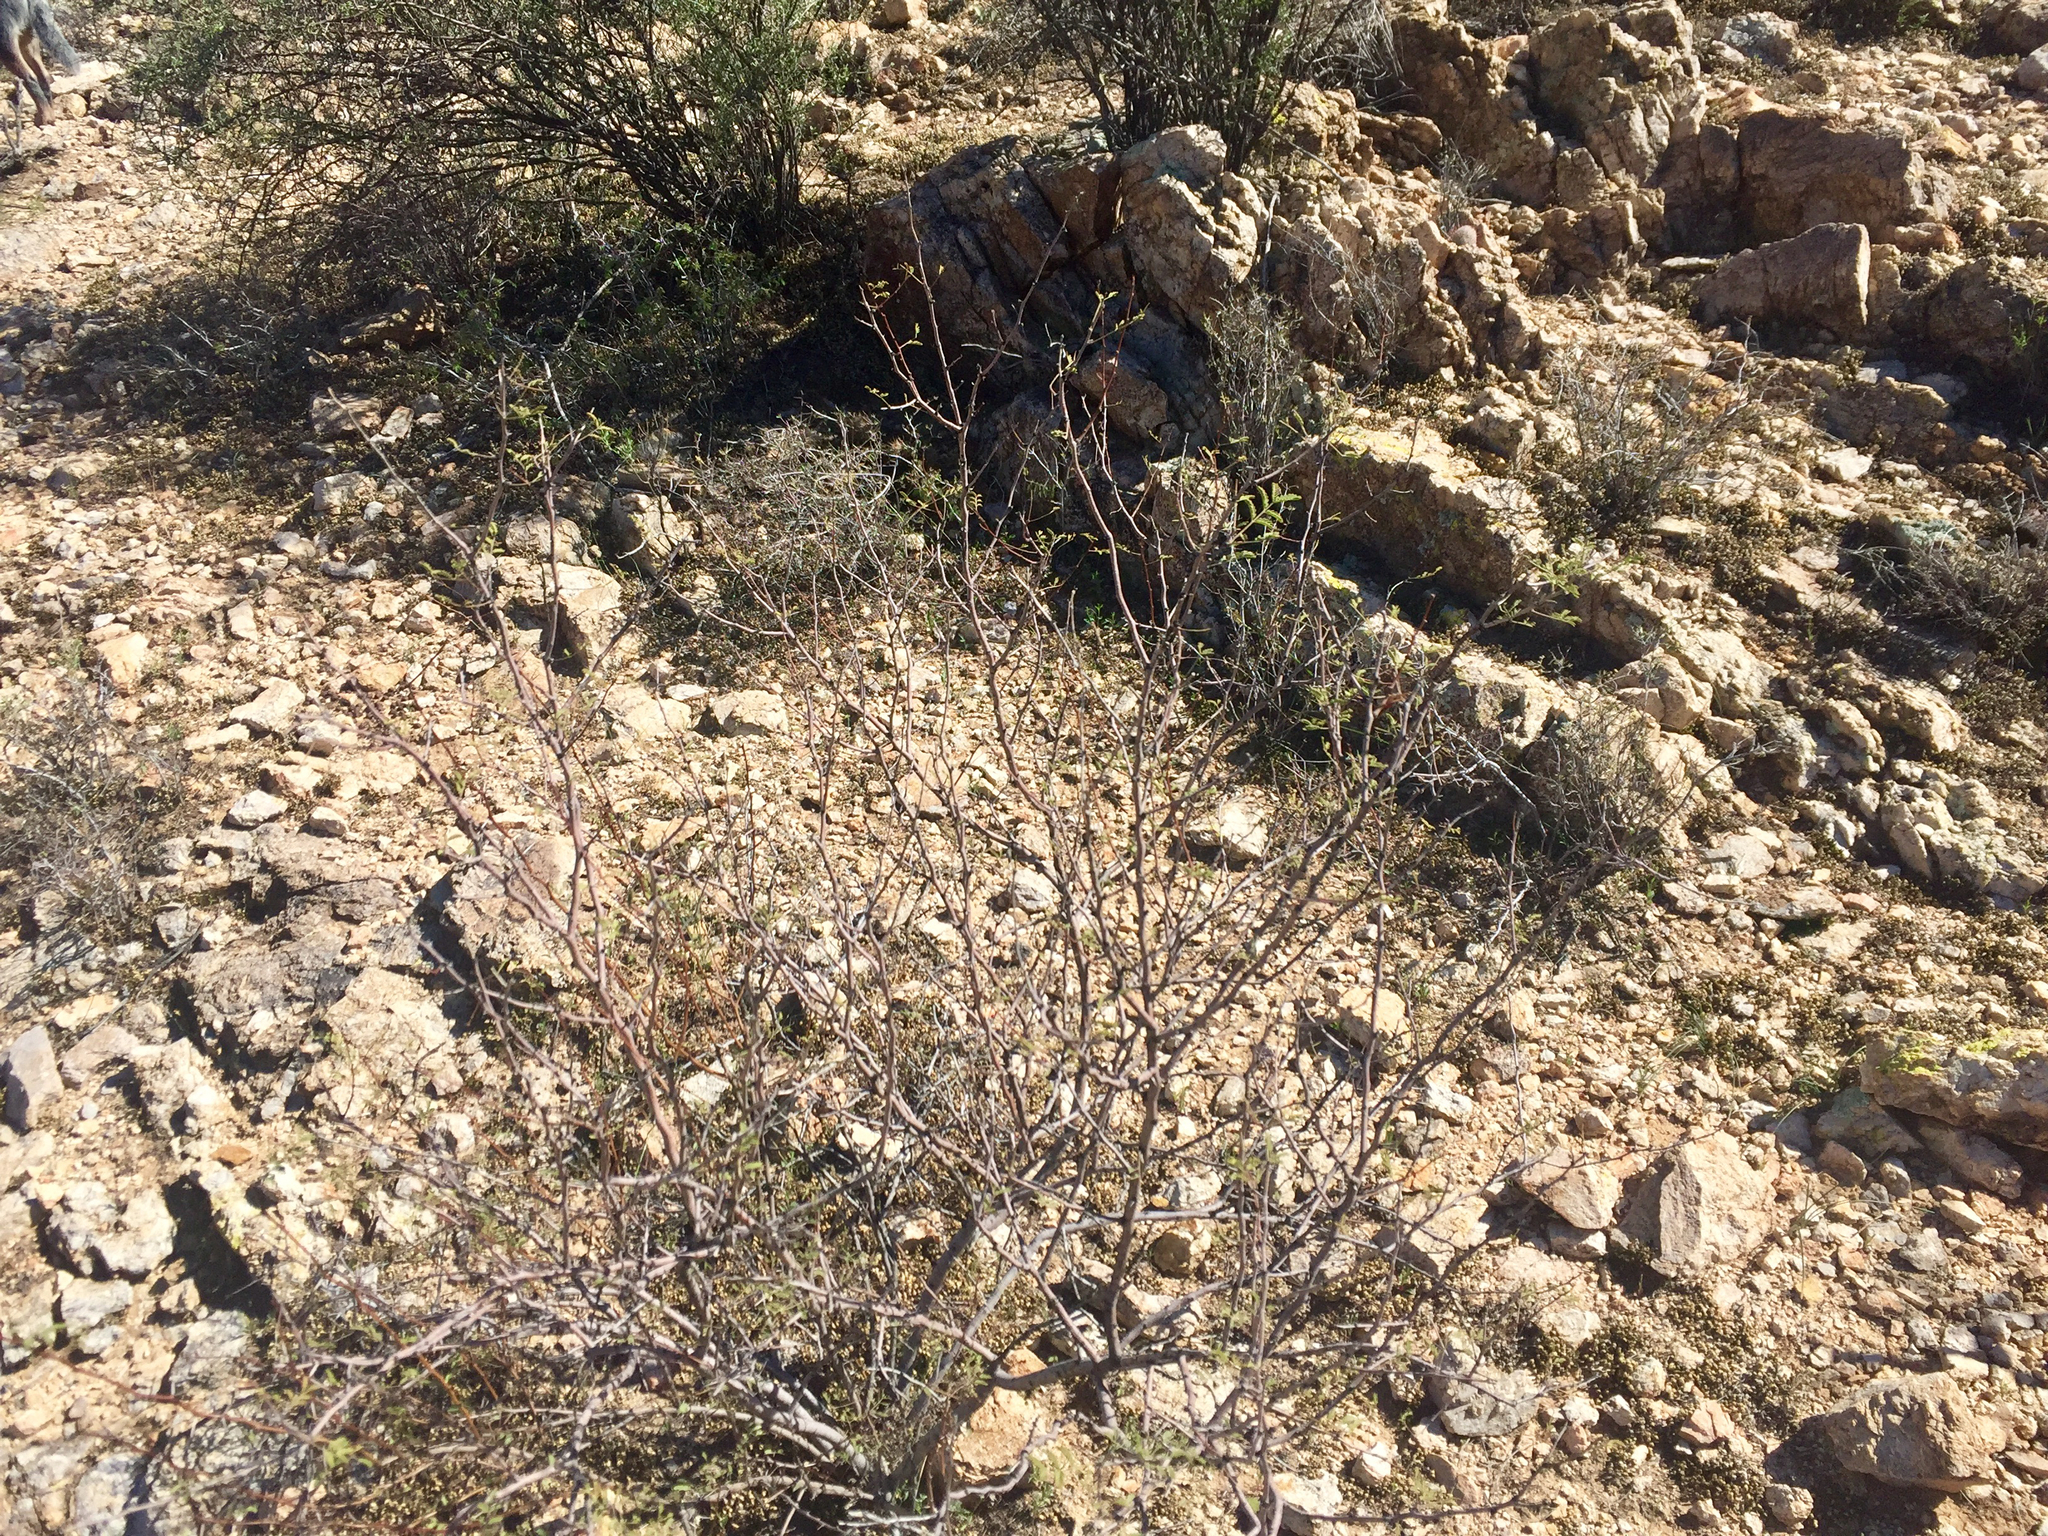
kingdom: Plantae
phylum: Tracheophyta
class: Magnoliopsida
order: Fabales
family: Fabaceae
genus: Vachellia
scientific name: Vachellia constricta
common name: Mescat acacia
